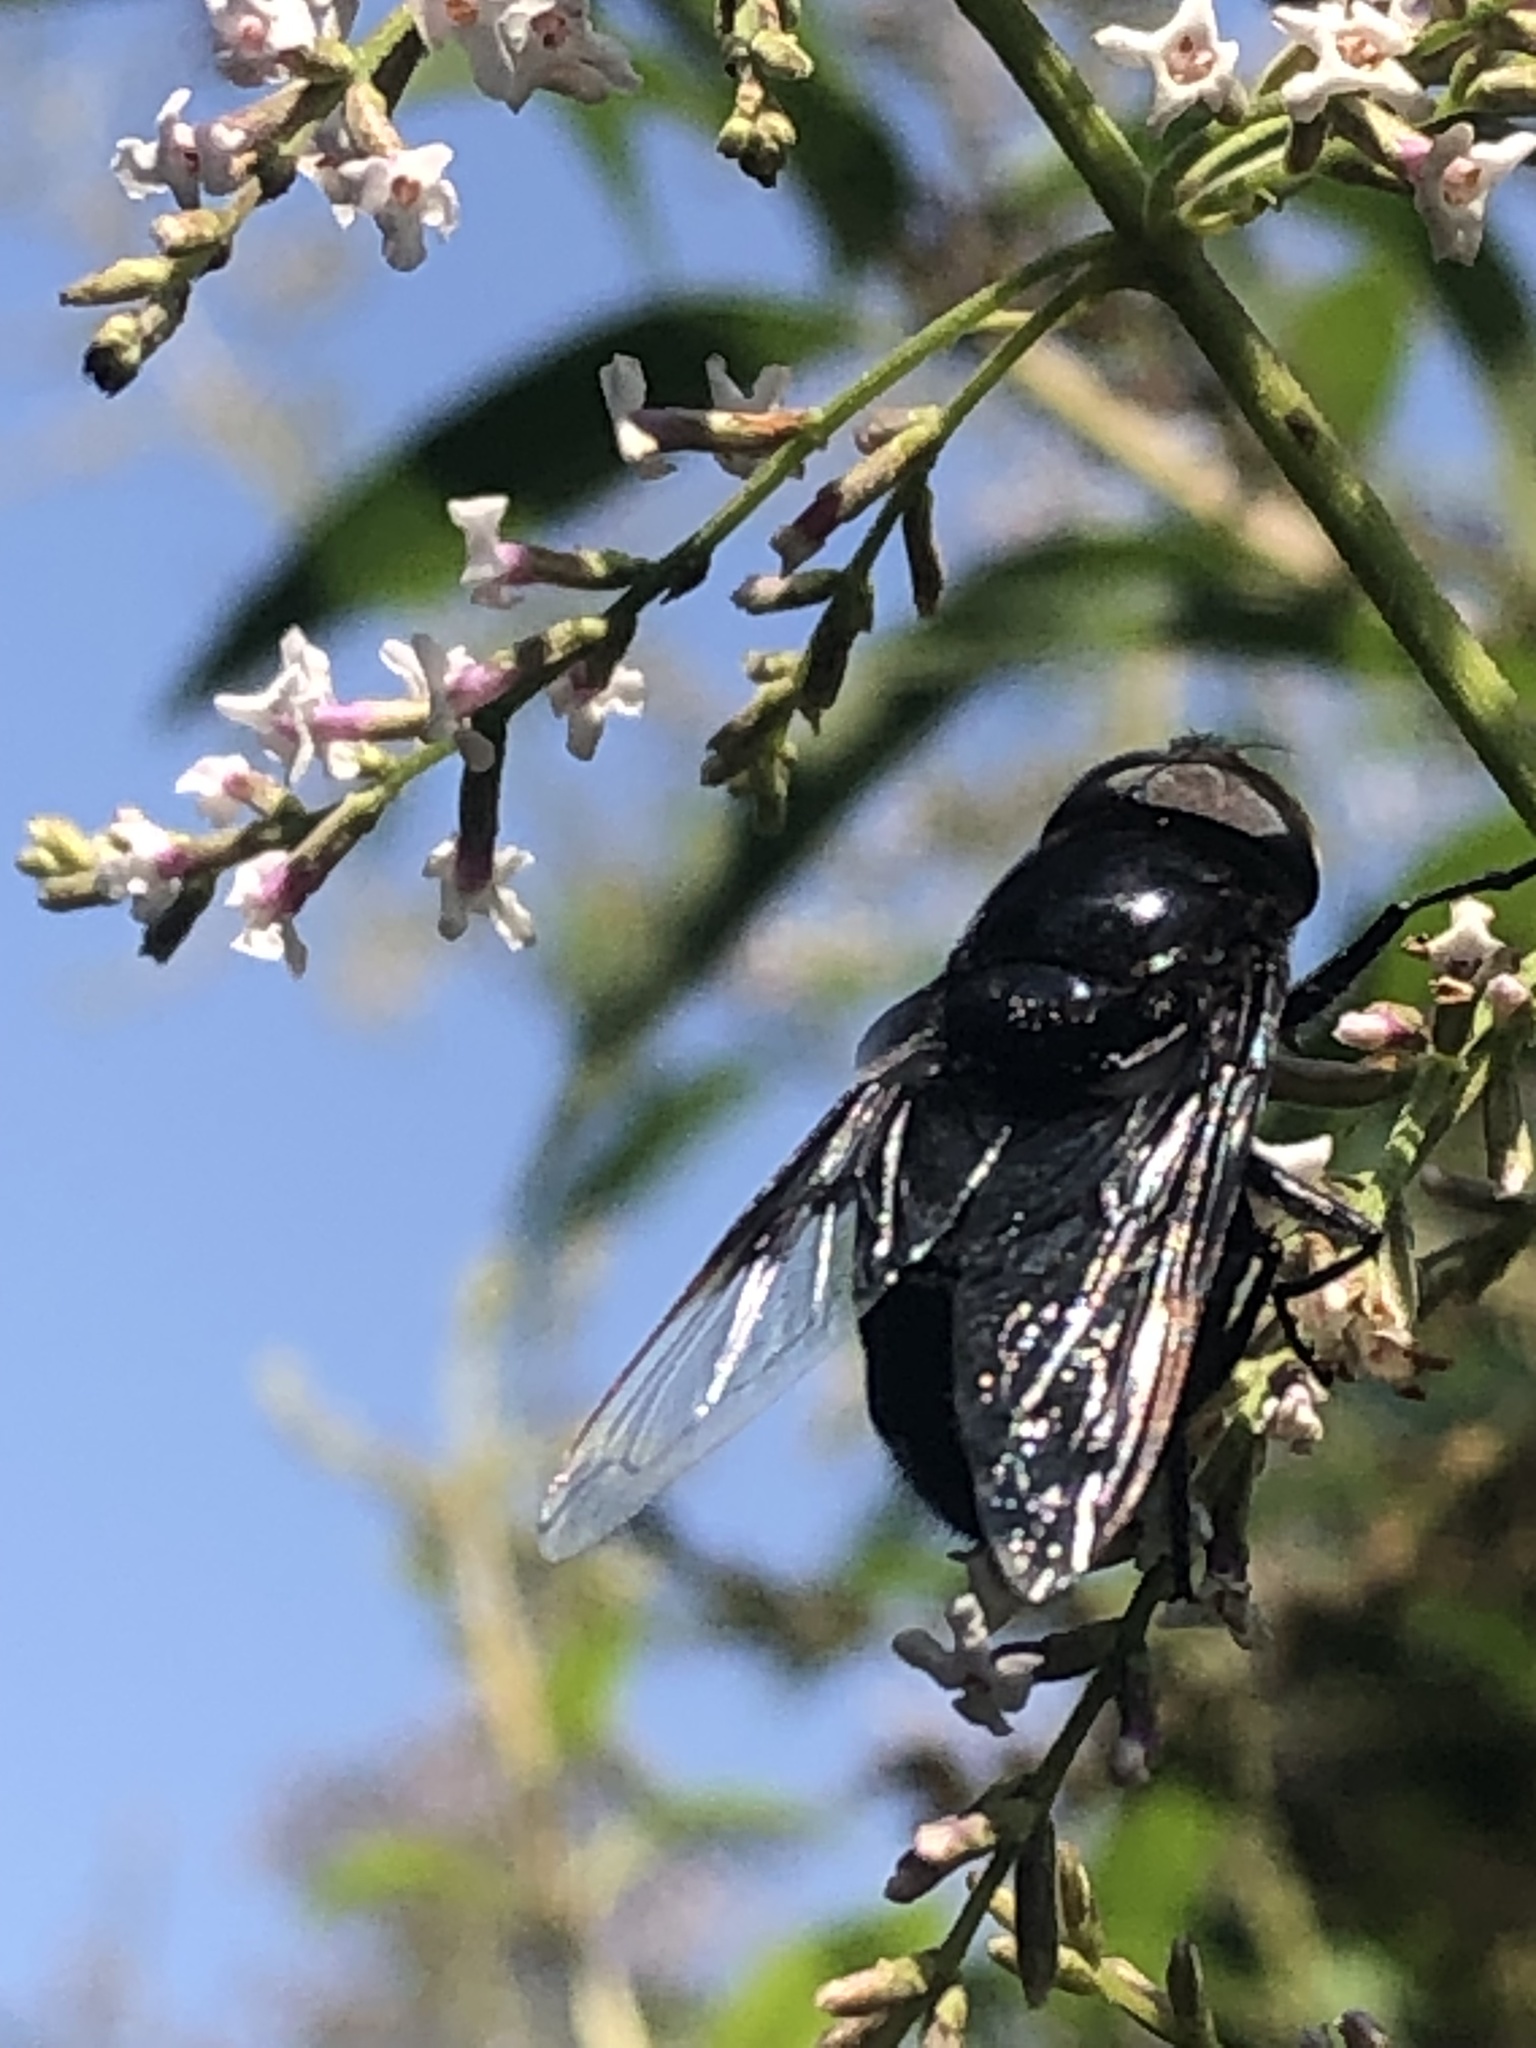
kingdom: Animalia
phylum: Arthropoda
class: Insecta
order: Diptera
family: Syrphidae
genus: Copestylum
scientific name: Copestylum mexicanum
